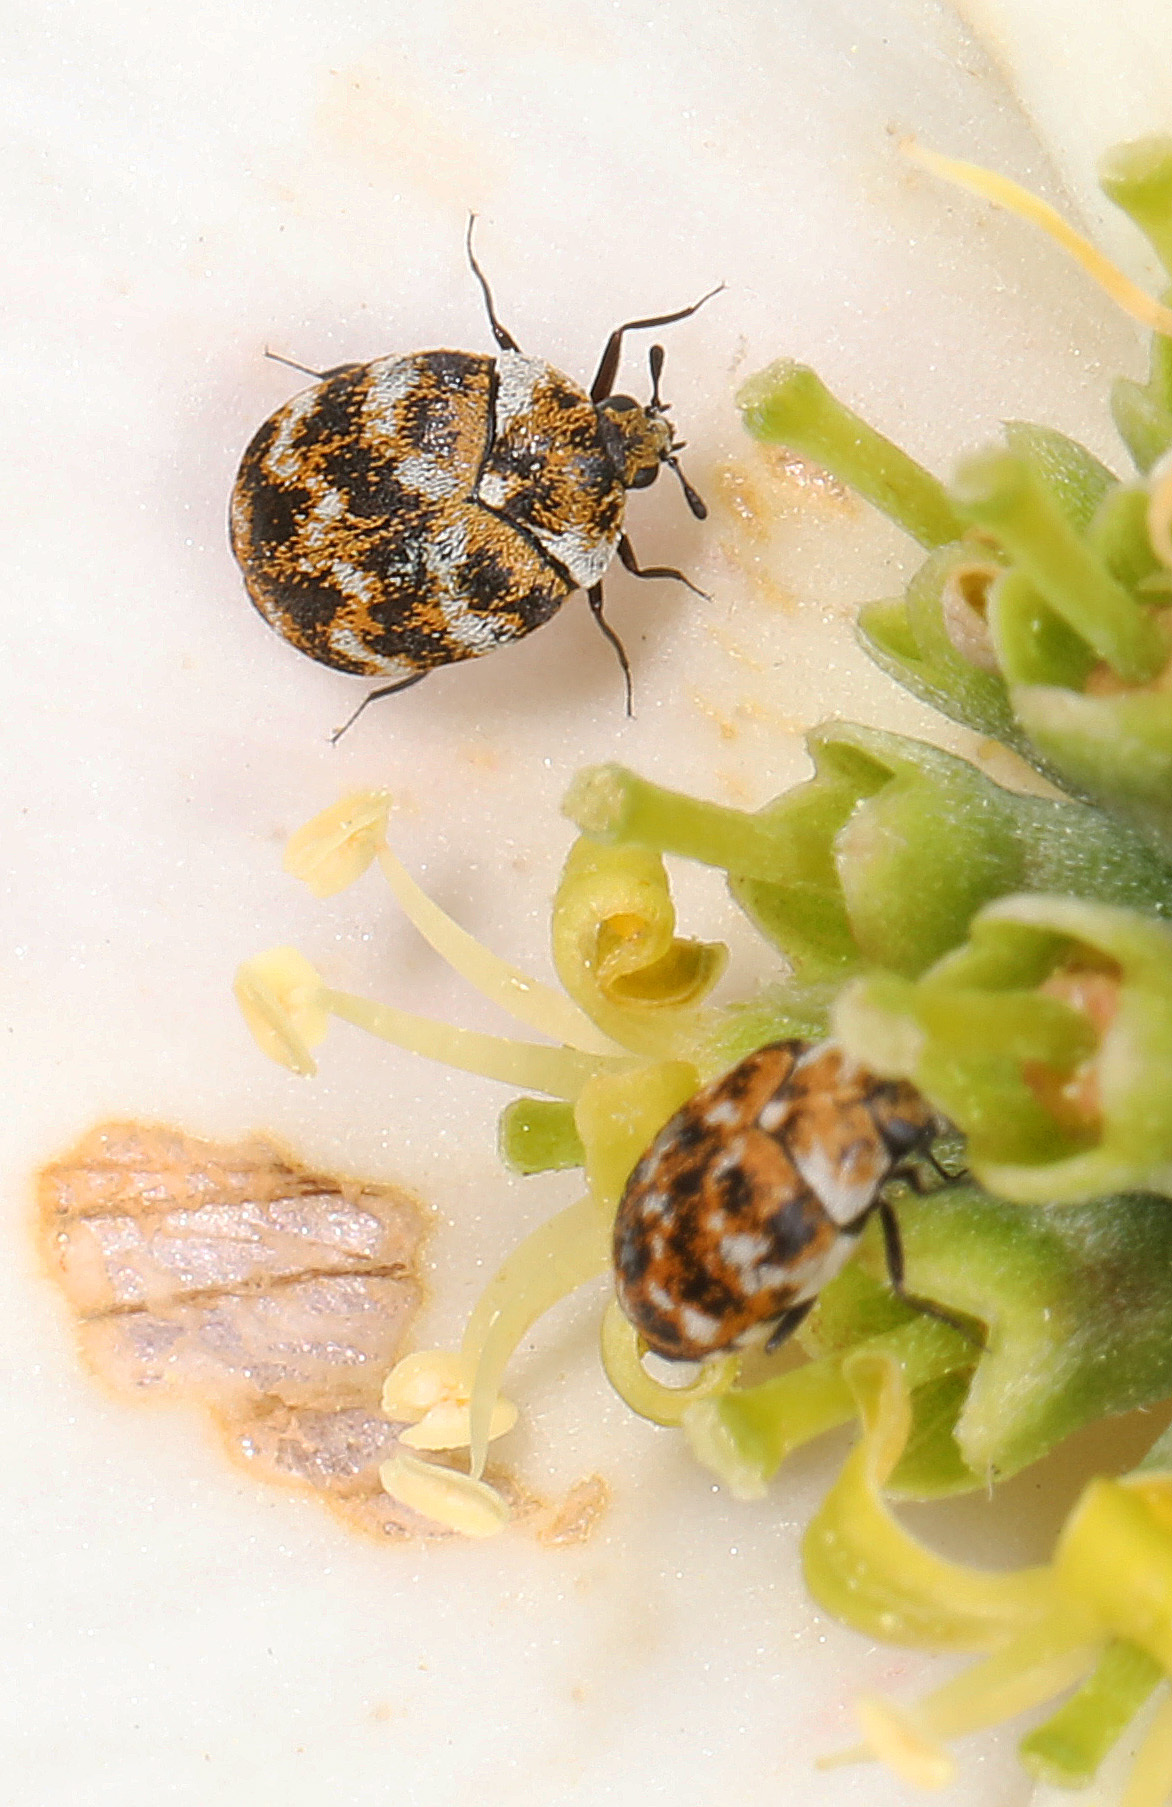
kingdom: Animalia
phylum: Arthropoda
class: Insecta
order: Coleoptera
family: Dermestidae
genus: Anthrenus
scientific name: Anthrenus verbasci
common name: Varied carpet beetle
